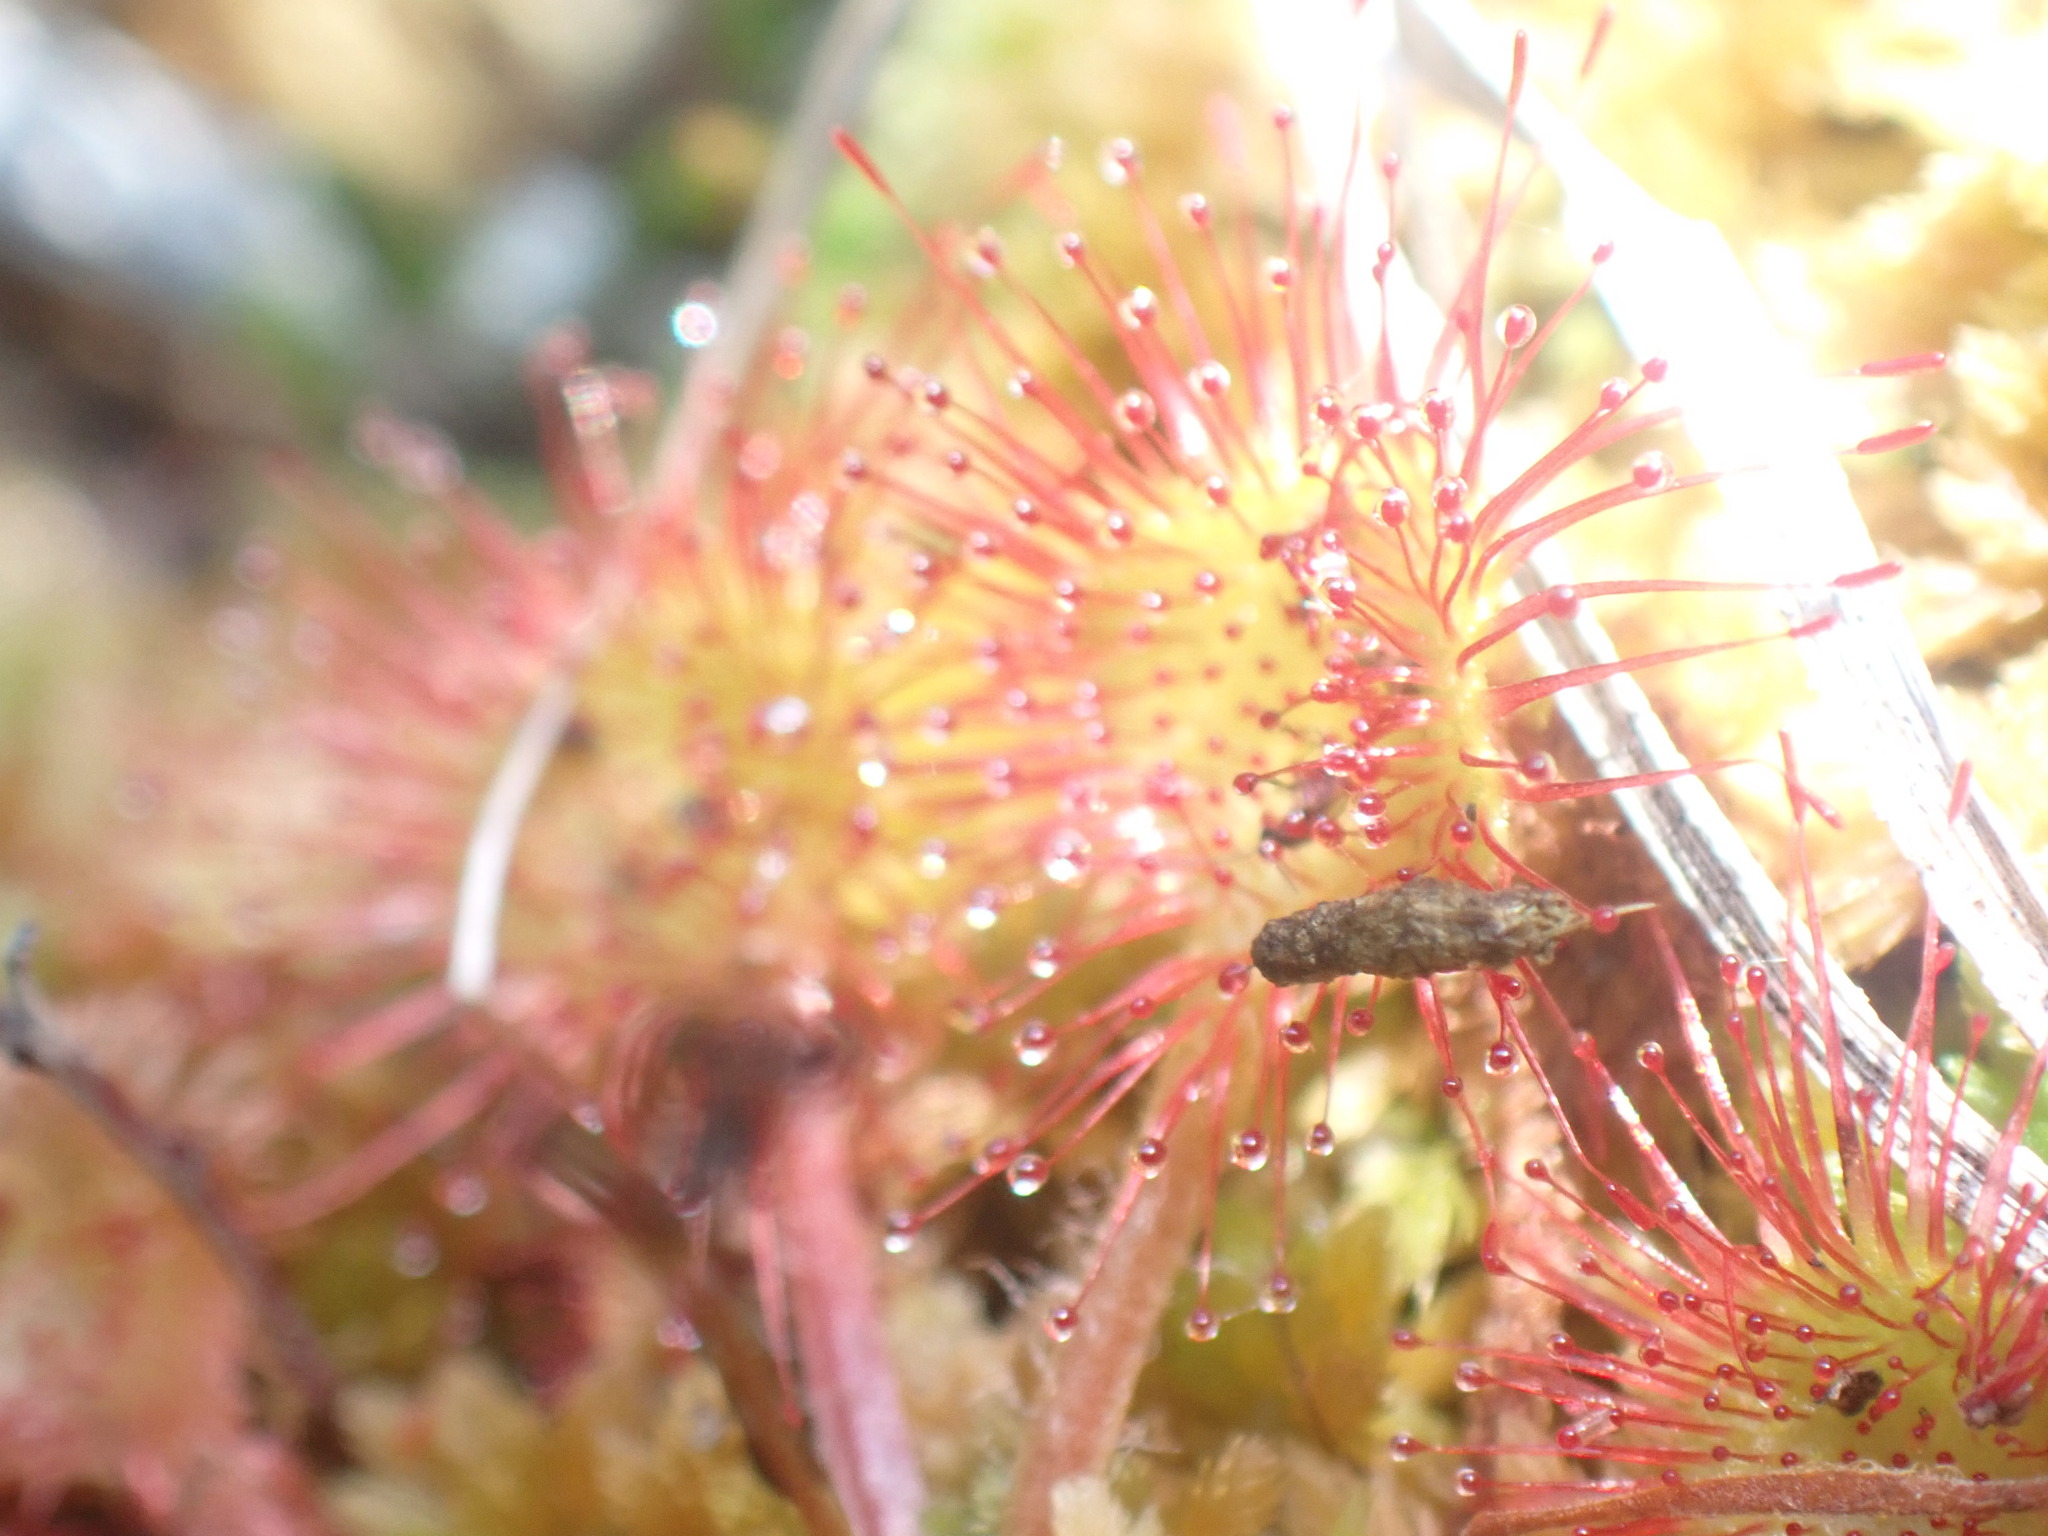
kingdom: Plantae
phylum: Tracheophyta
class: Magnoliopsida
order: Caryophyllales
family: Droseraceae
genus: Drosera
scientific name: Drosera rotundifolia
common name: Round-leaved sundew
